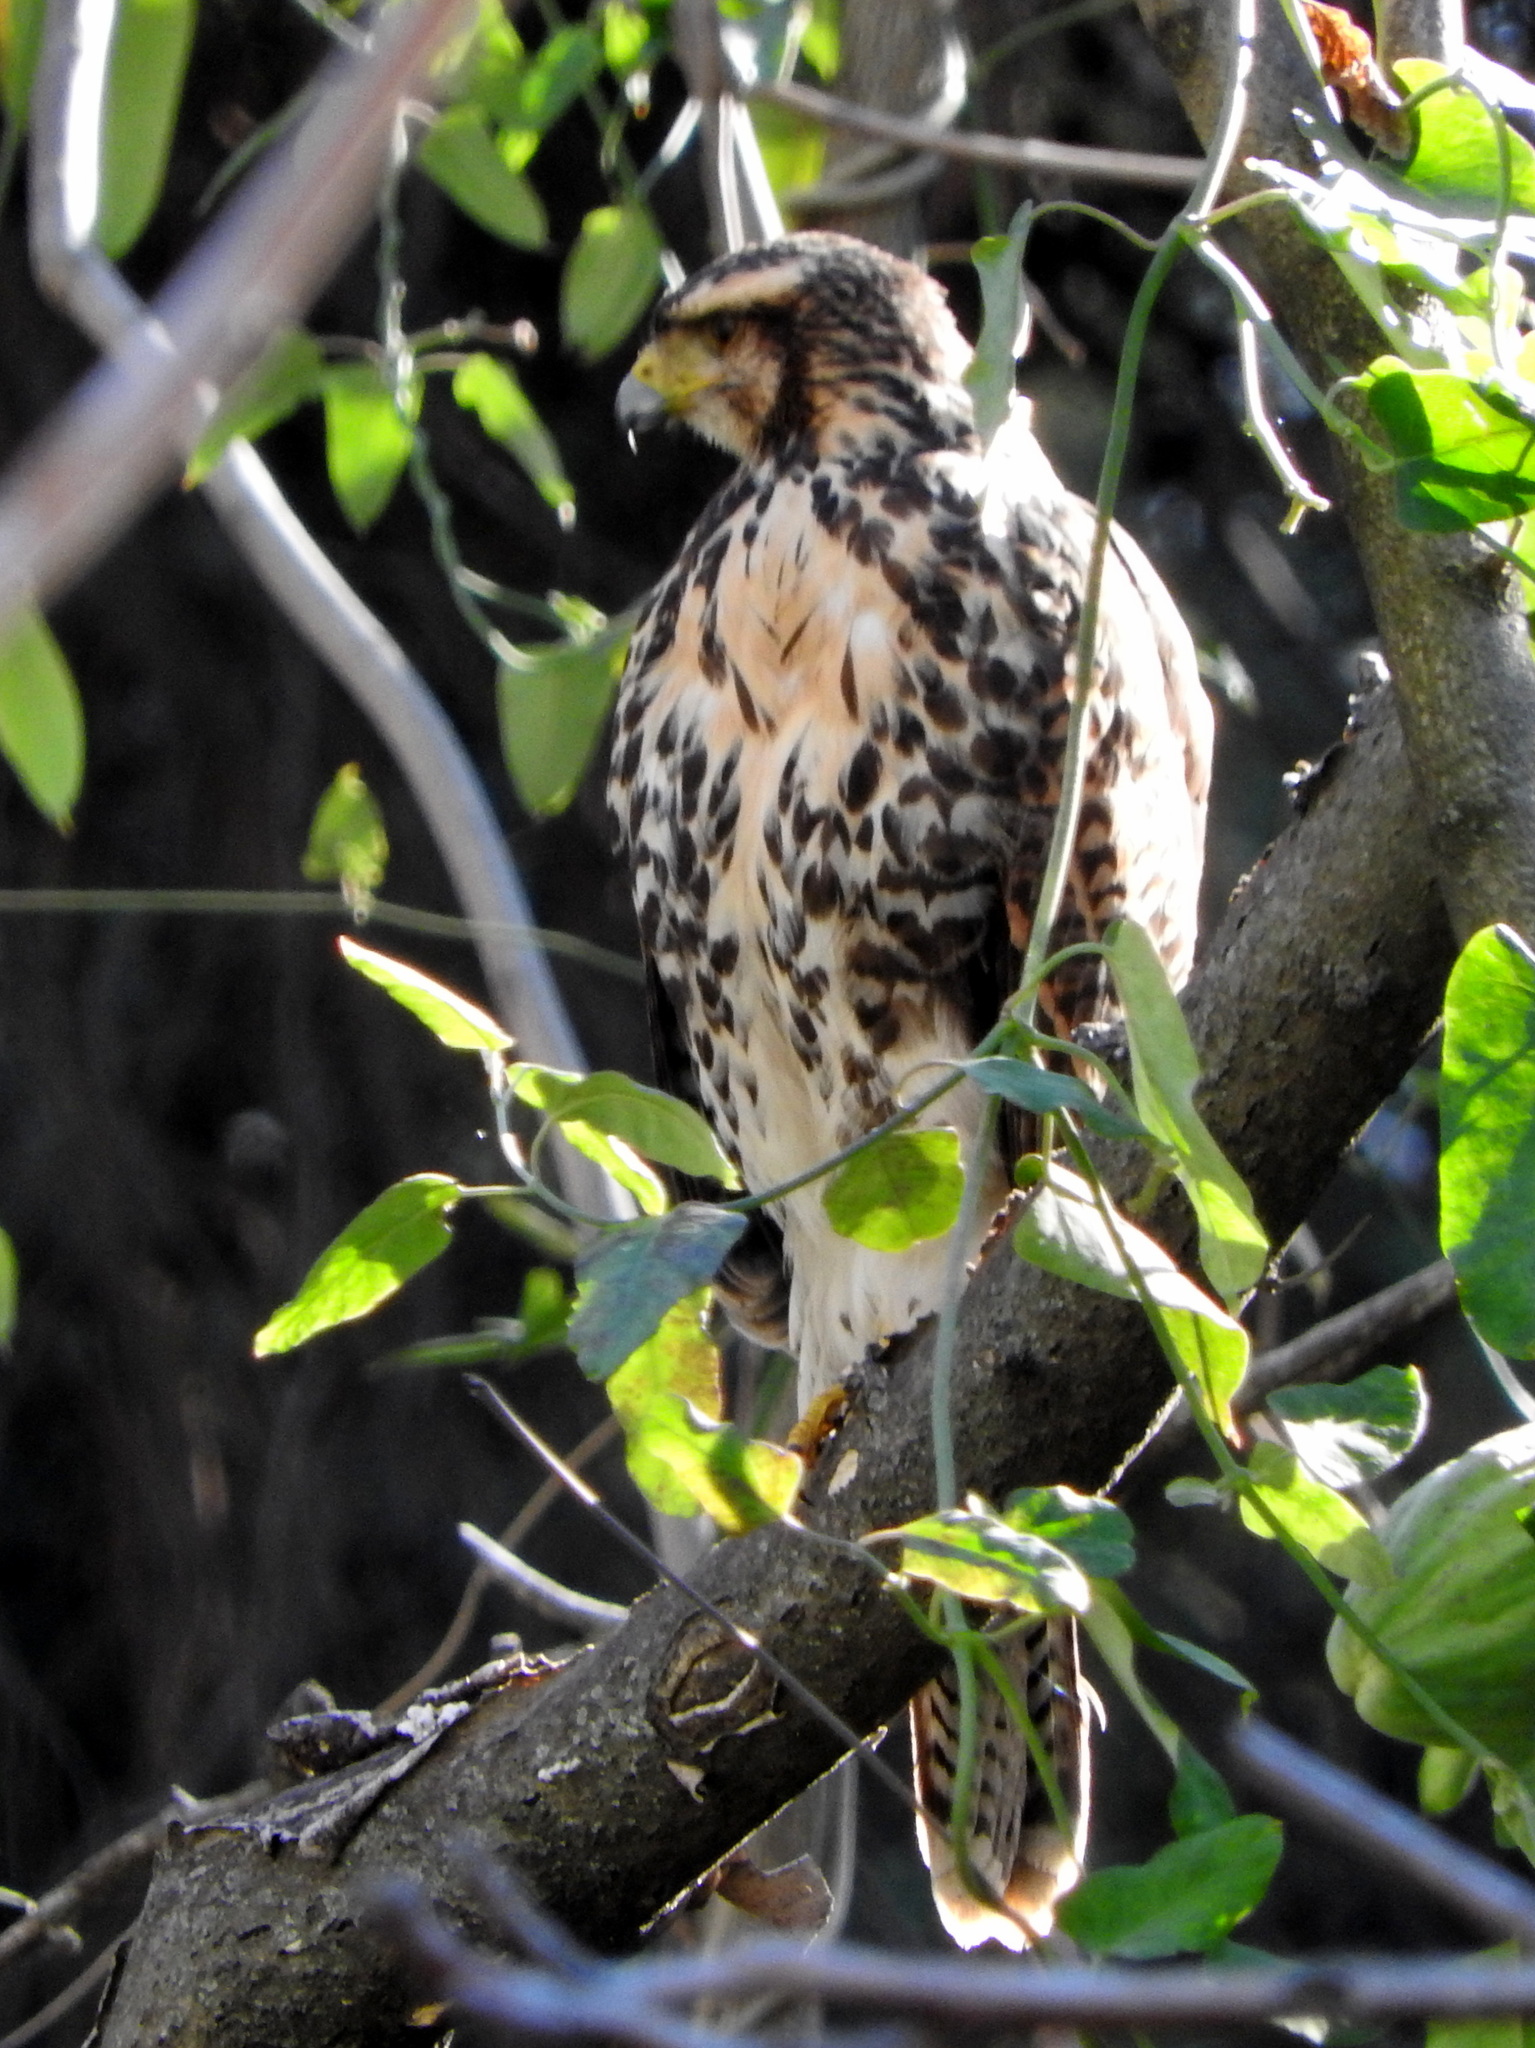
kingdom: Animalia
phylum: Chordata
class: Aves
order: Accipitriformes
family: Accipitridae
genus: Parabuteo
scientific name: Parabuteo unicinctus
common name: Harris's hawk
